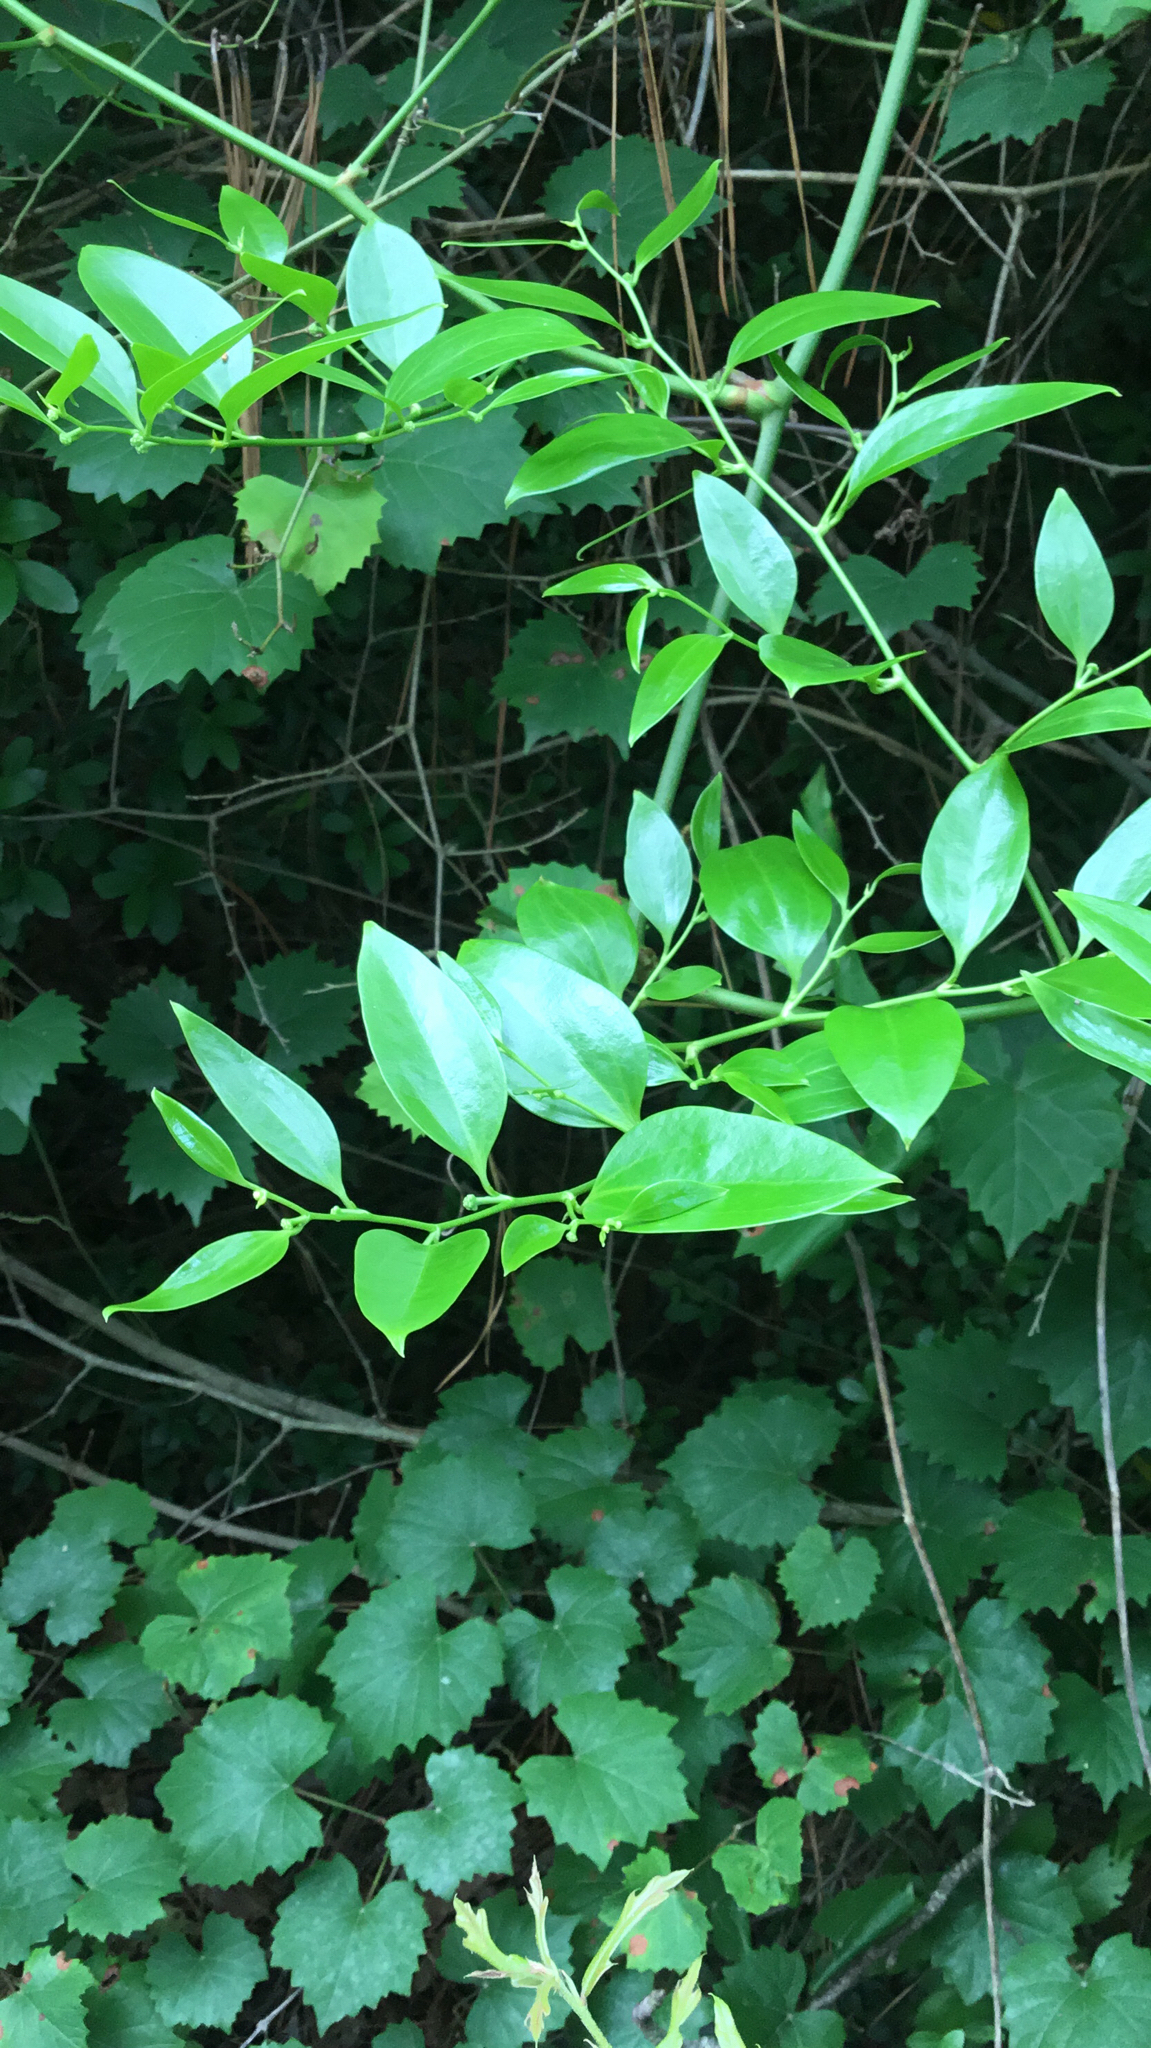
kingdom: Plantae
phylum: Tracheophyta
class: Liliopsida
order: Liliales
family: Smilacaceae
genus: Smilax
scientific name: Smilax maritima
